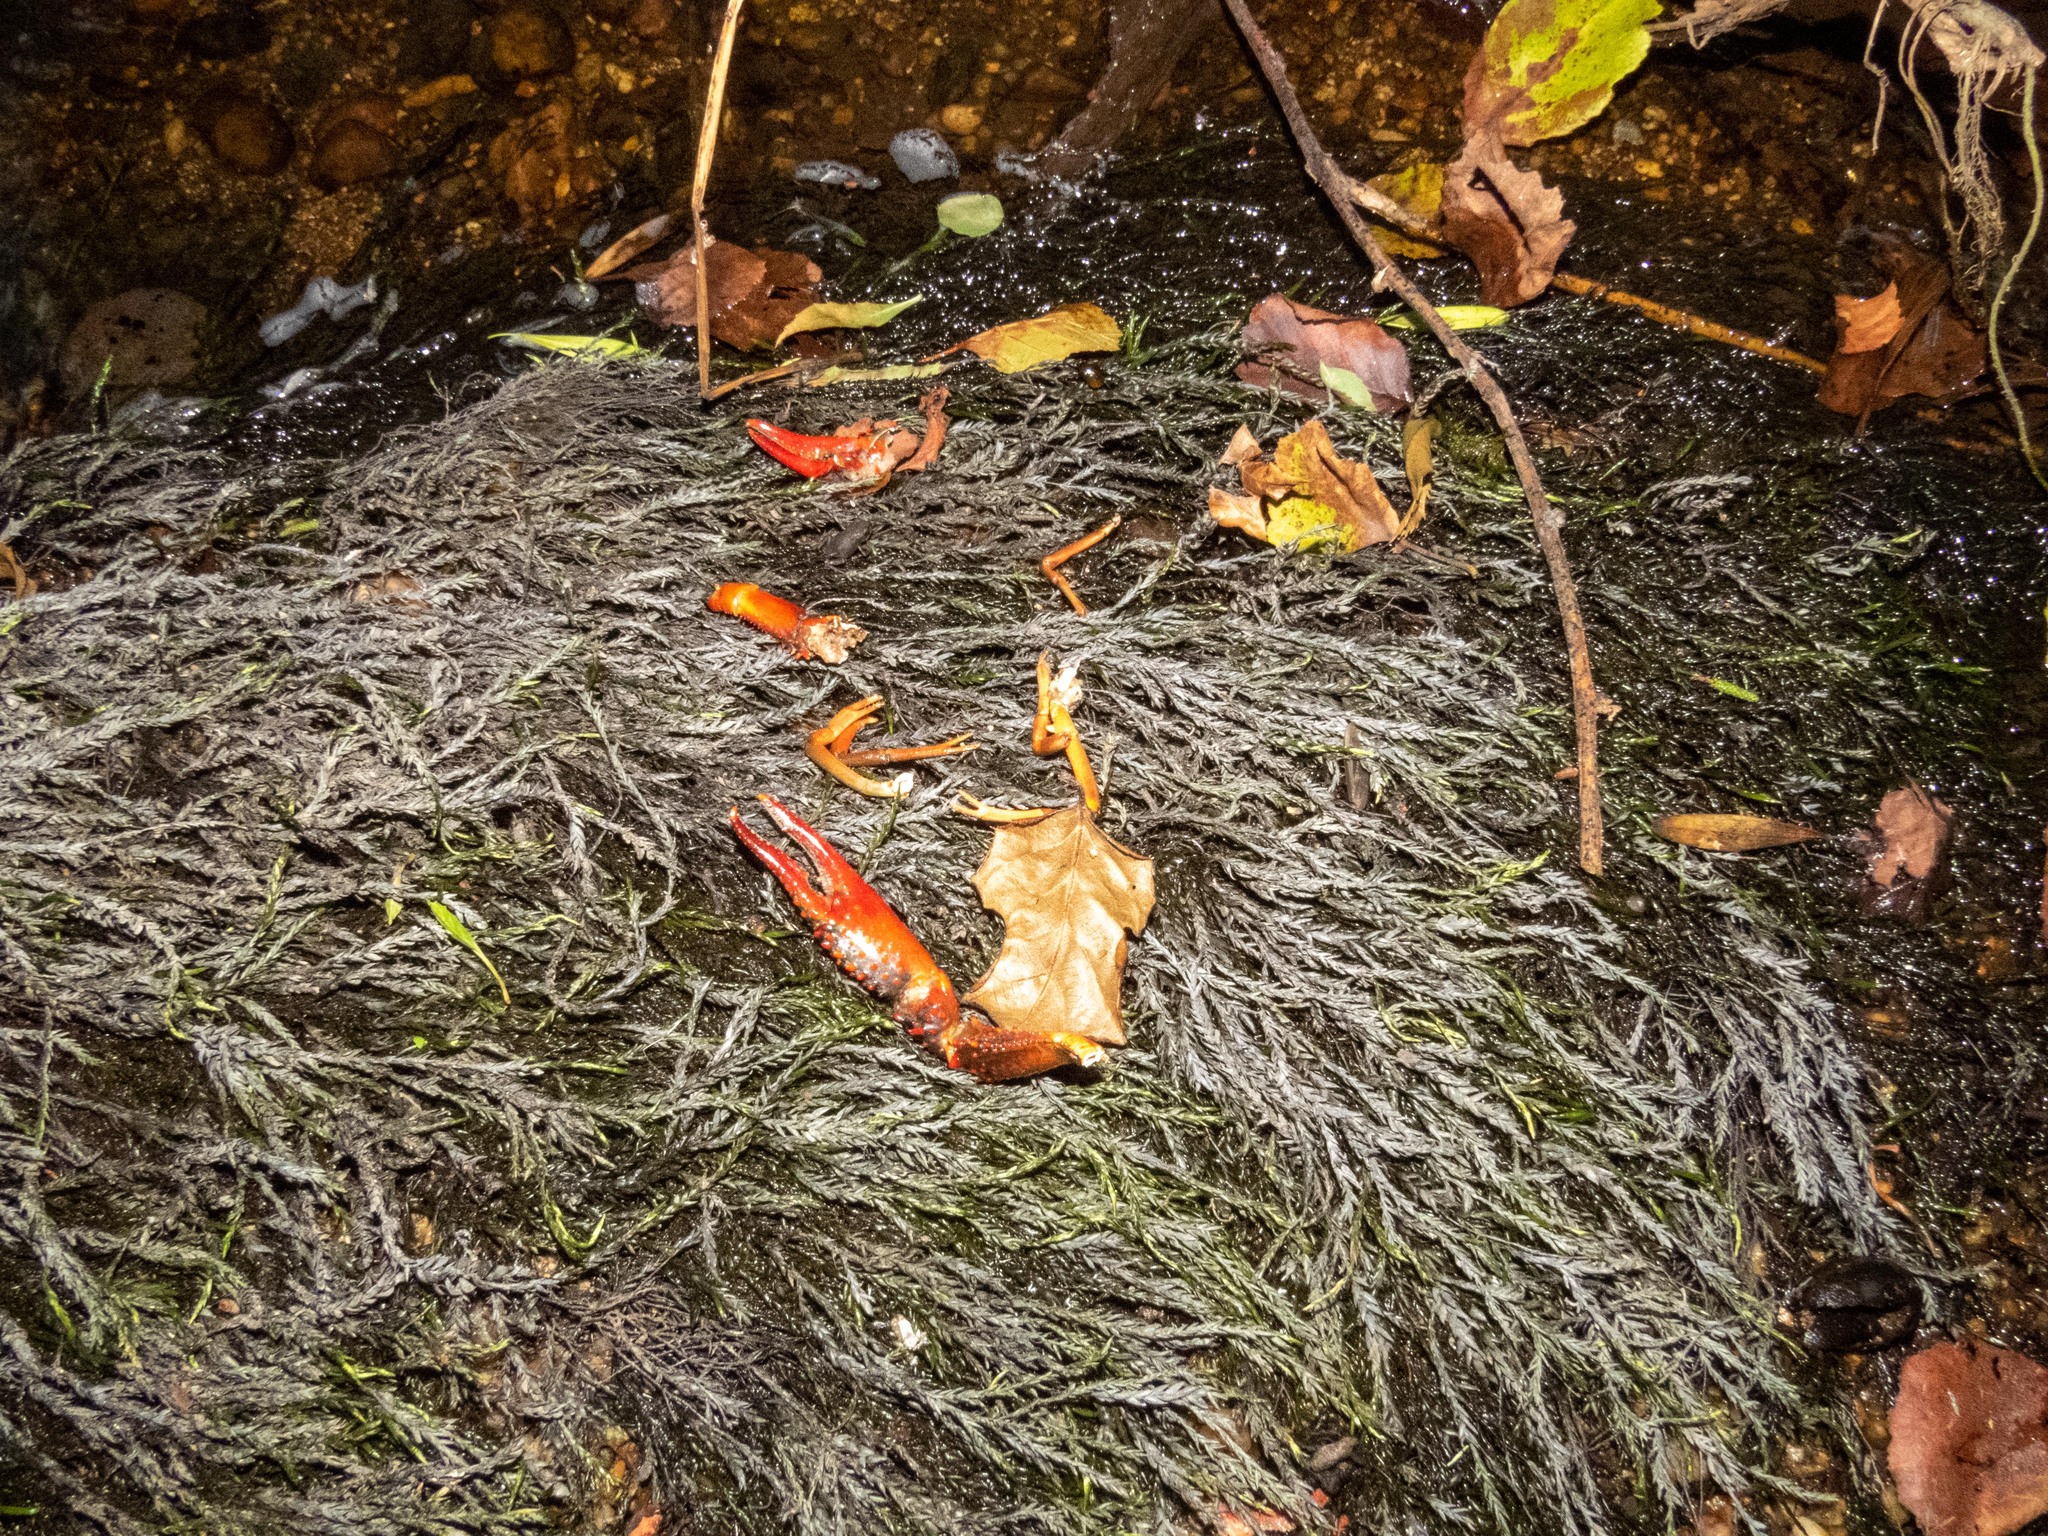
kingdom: Animalia
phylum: Arthropoda
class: Malacostraca
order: Decapoda
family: Cambaridae
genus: Procambarus
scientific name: Procambarus clarkii
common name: Red swamp crayfish
